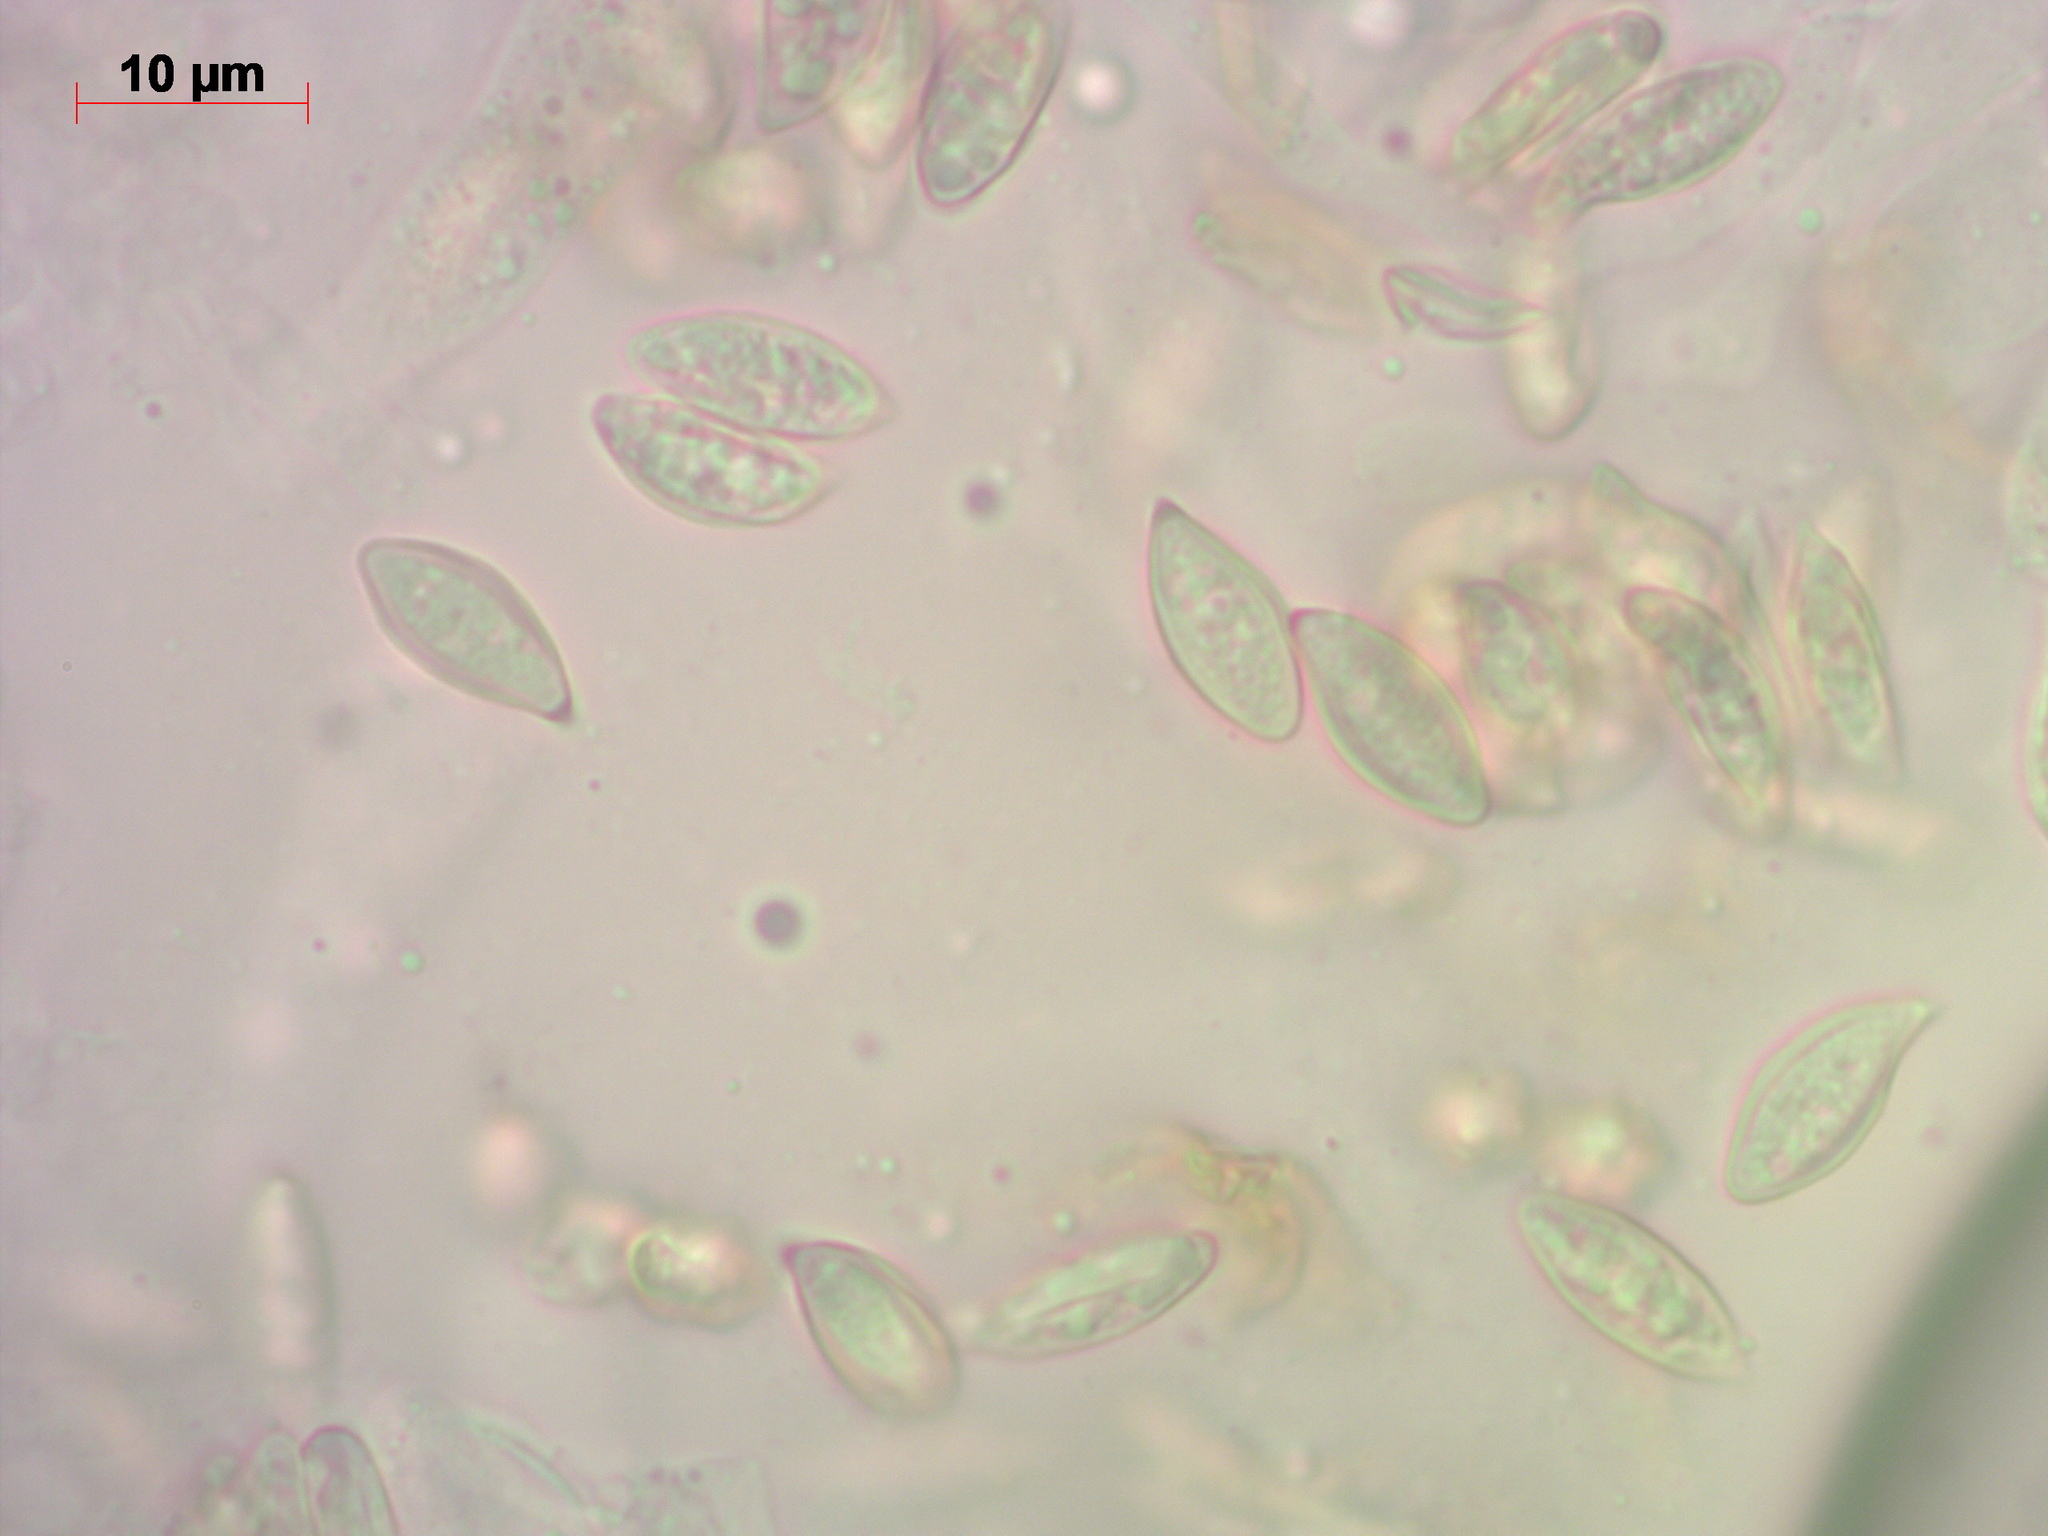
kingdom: Fungi
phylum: Basidiomycota
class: Agaricomycetes
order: Agaricales
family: Entolomataceae
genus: Clitopilus
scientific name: Clitopilus prunulus
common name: The miller
